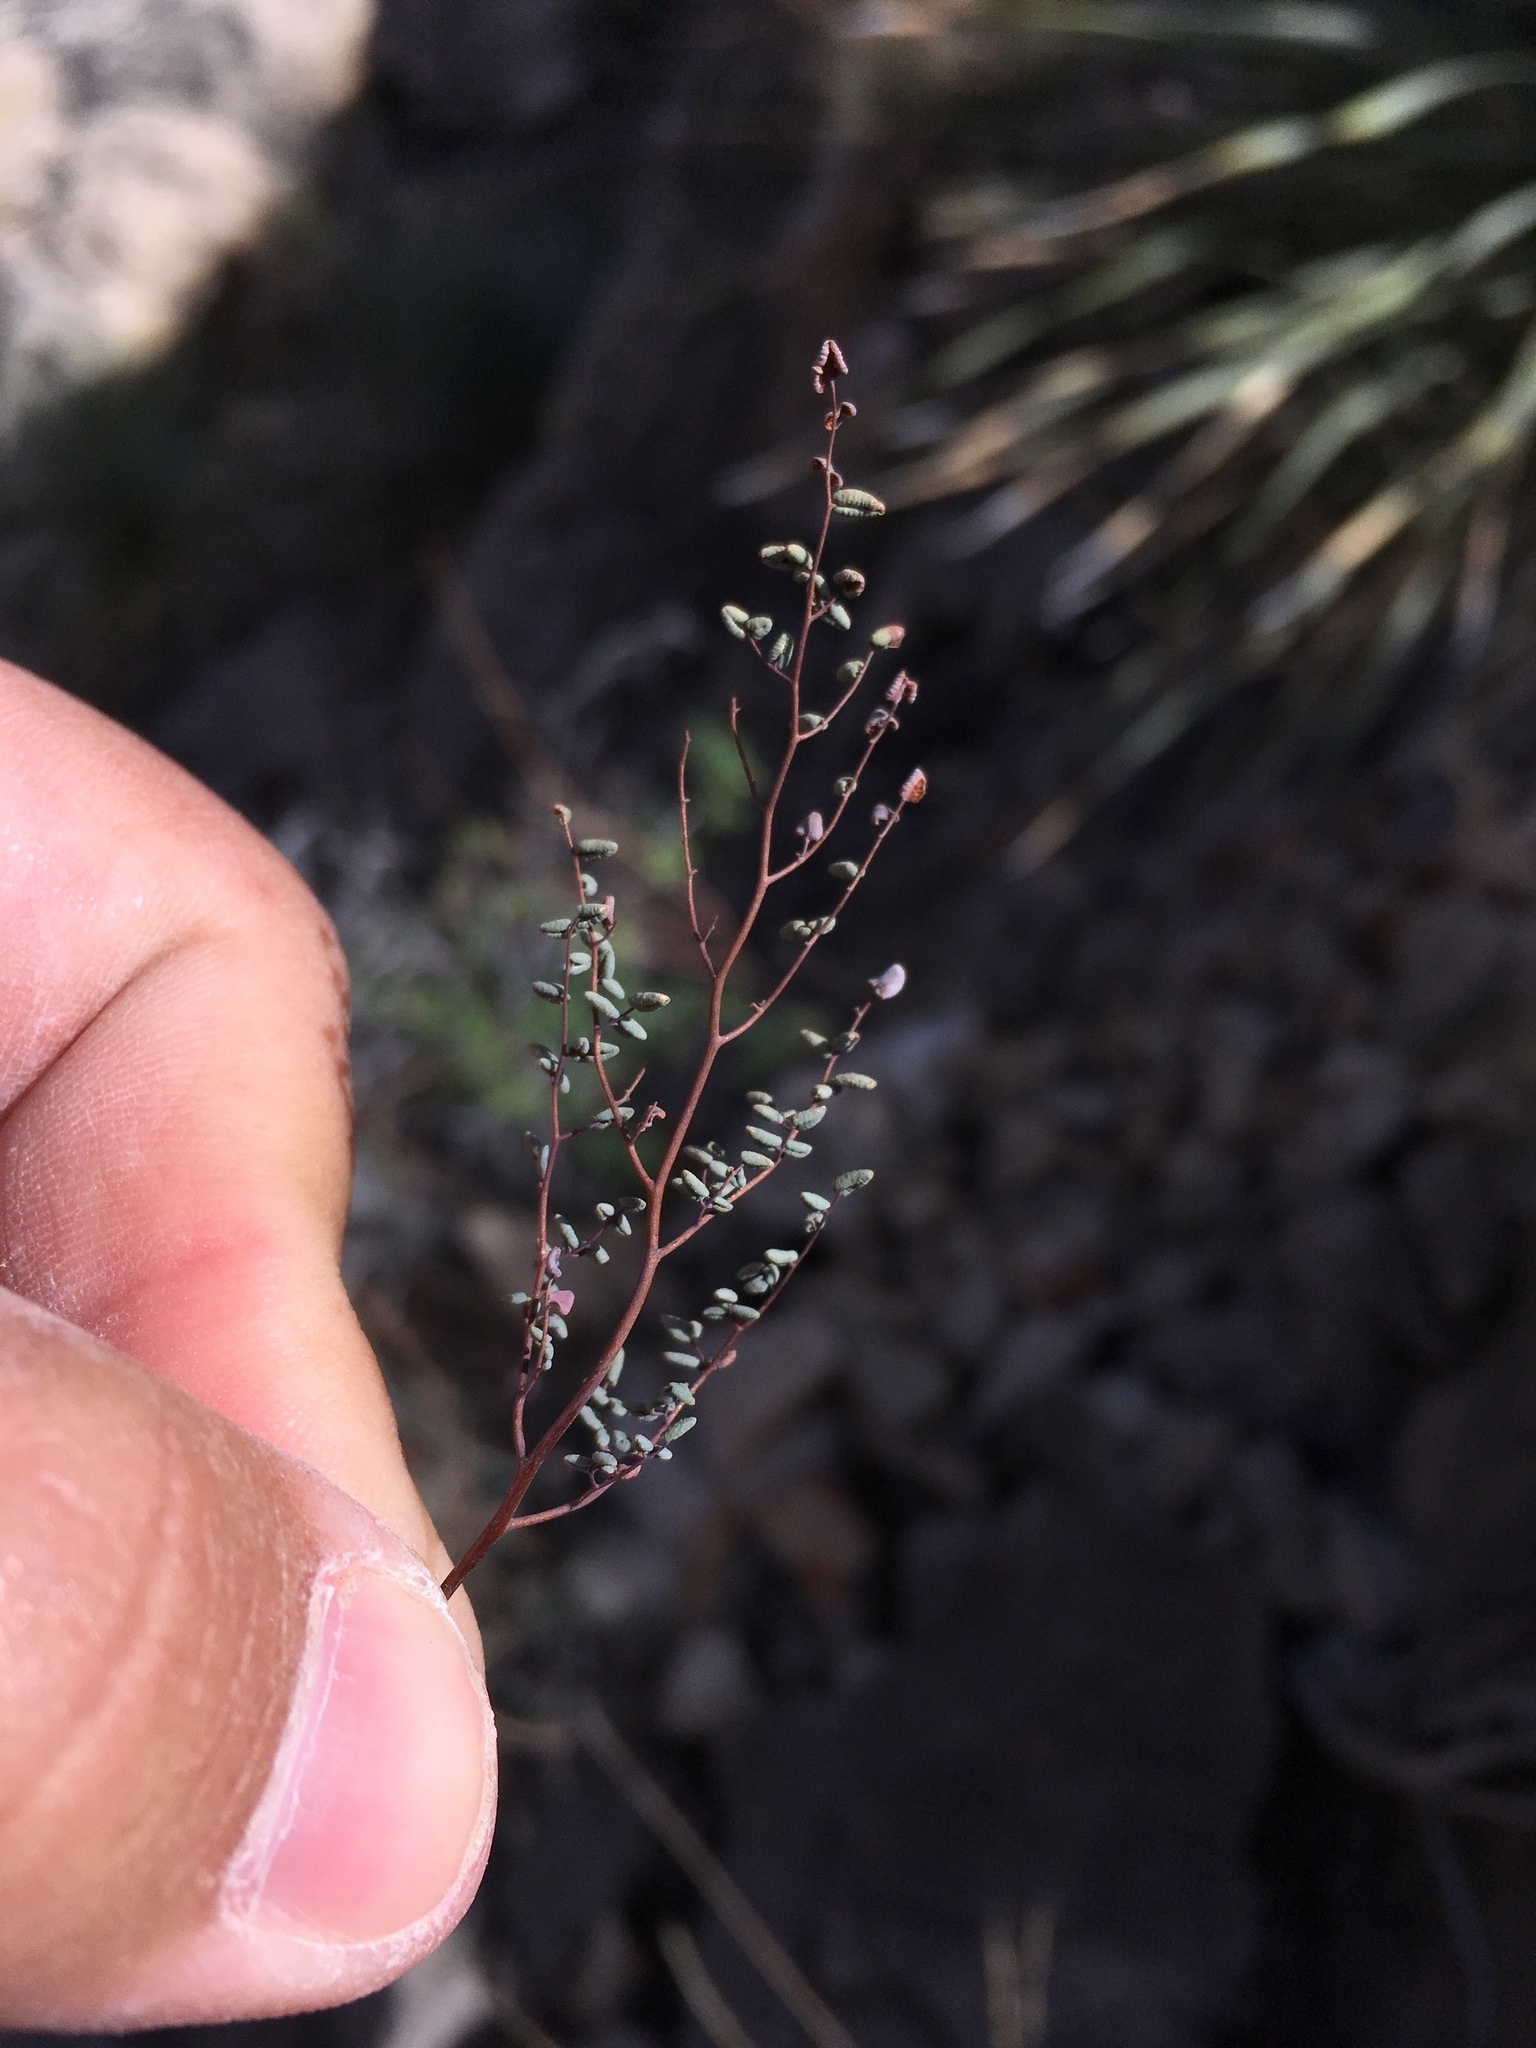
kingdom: Plantae
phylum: Tracheophyta
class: Polypodiopsida
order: Polypodiales
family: Pteridaceae
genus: Argyrochosma
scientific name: Argyrochosma microphylla
